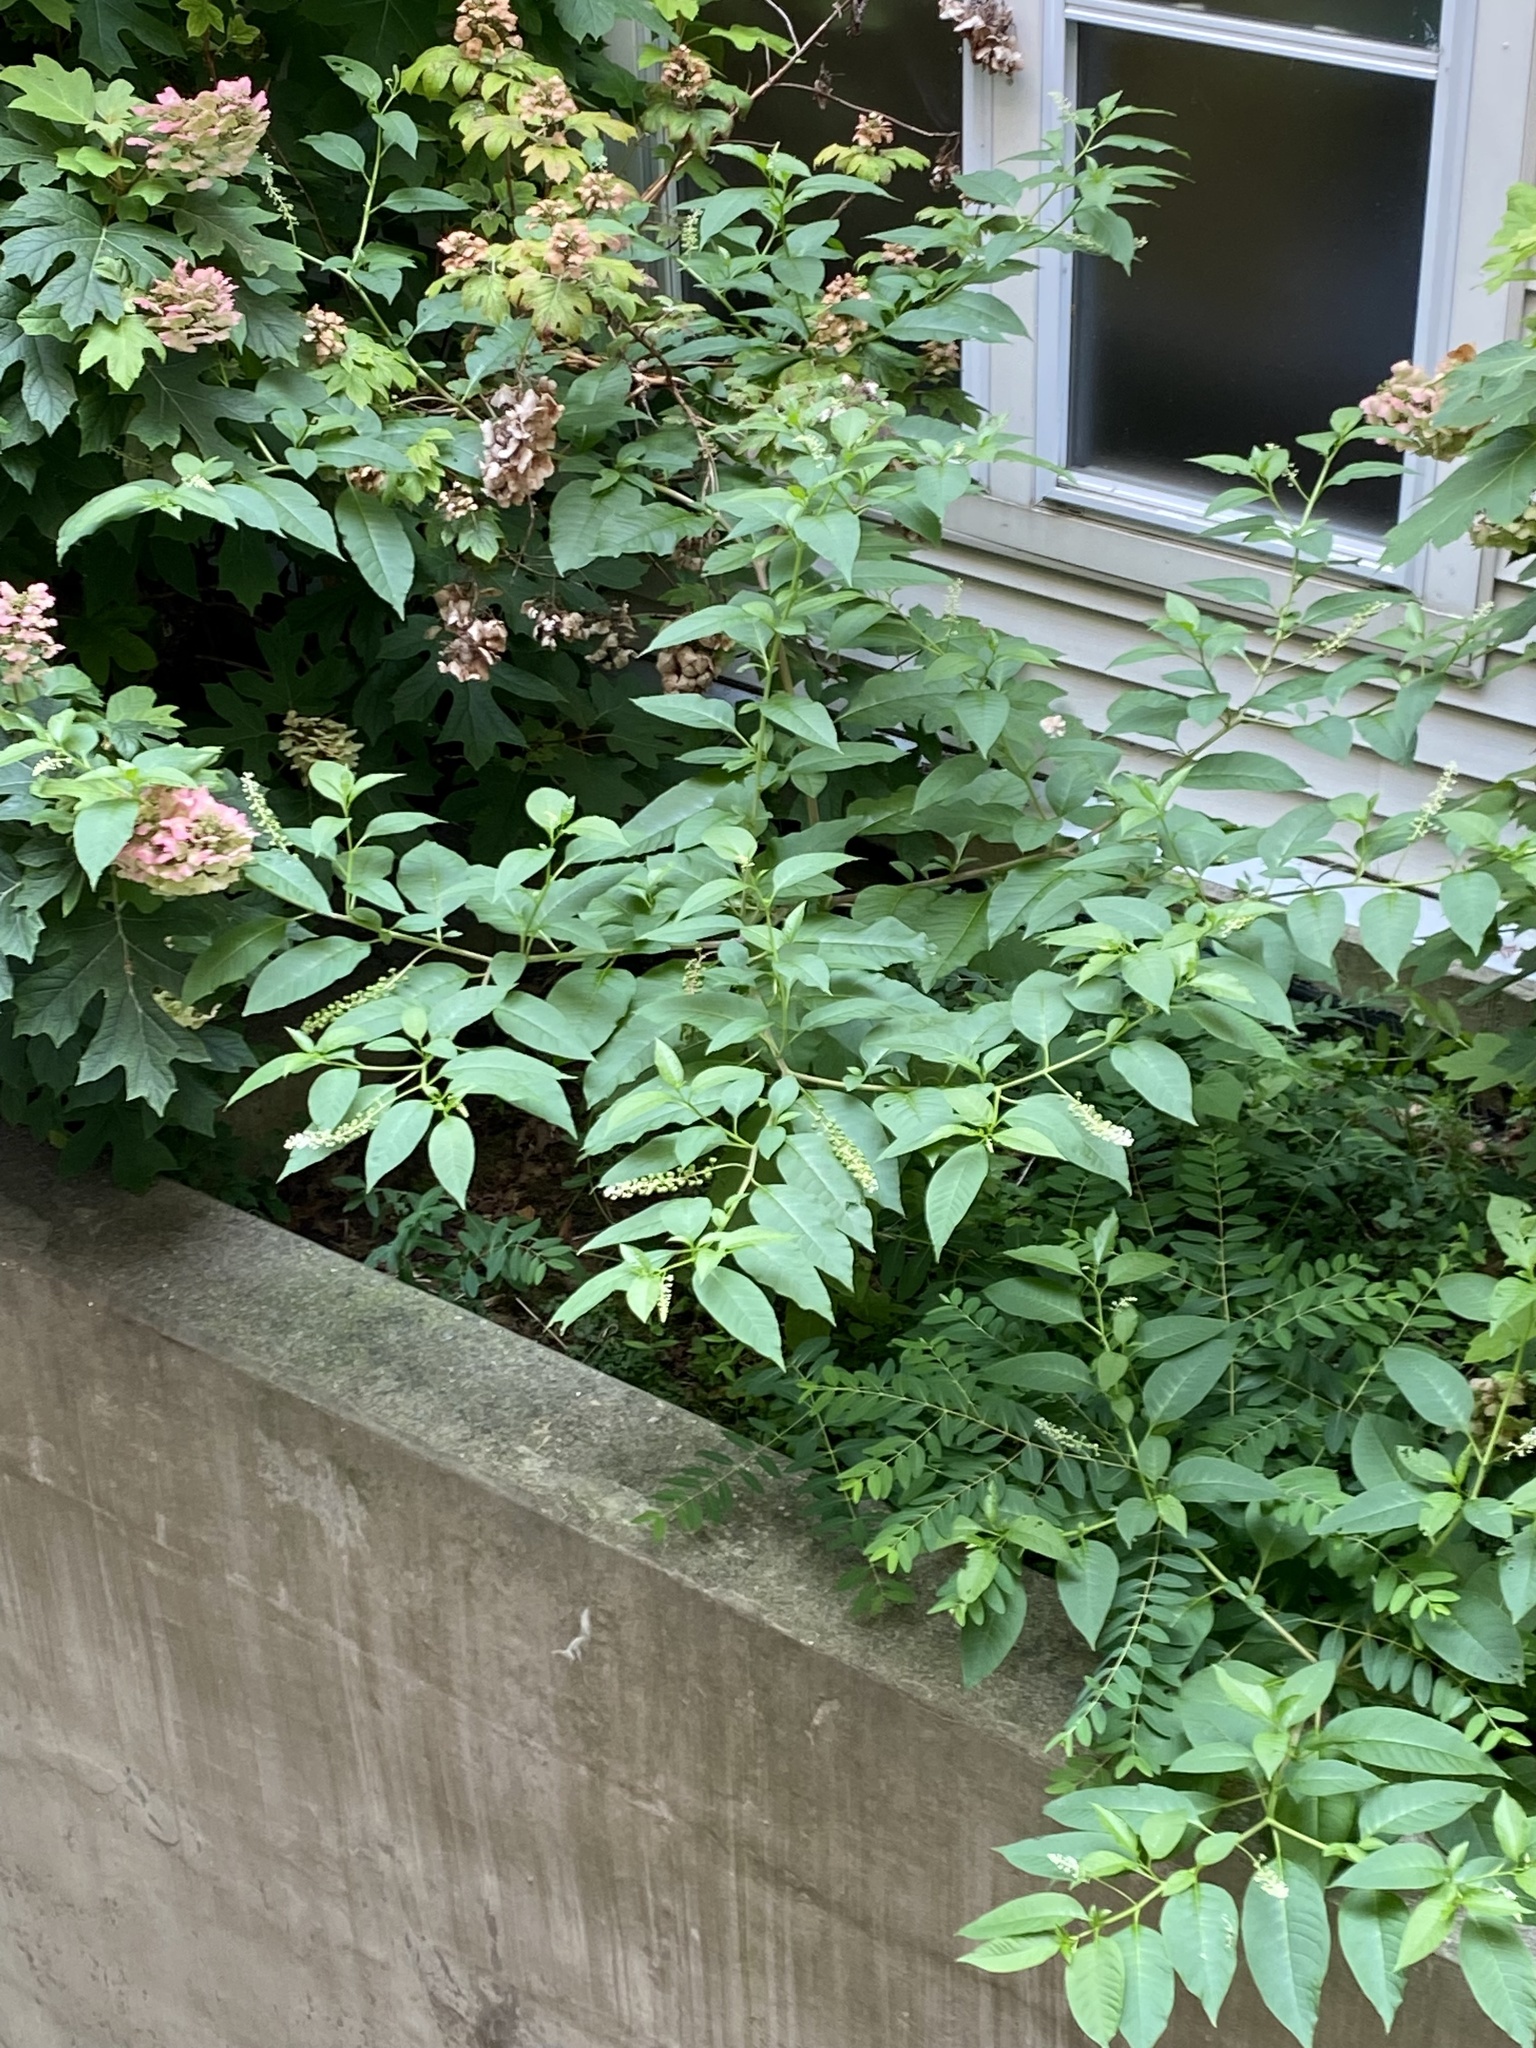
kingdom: Plantae
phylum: Tracheophyta
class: Magnoliopsida
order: Caryophyllales
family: Phytolaccaceae
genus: Phytolacca
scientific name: Phytolacca americana
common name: American pokeweed
